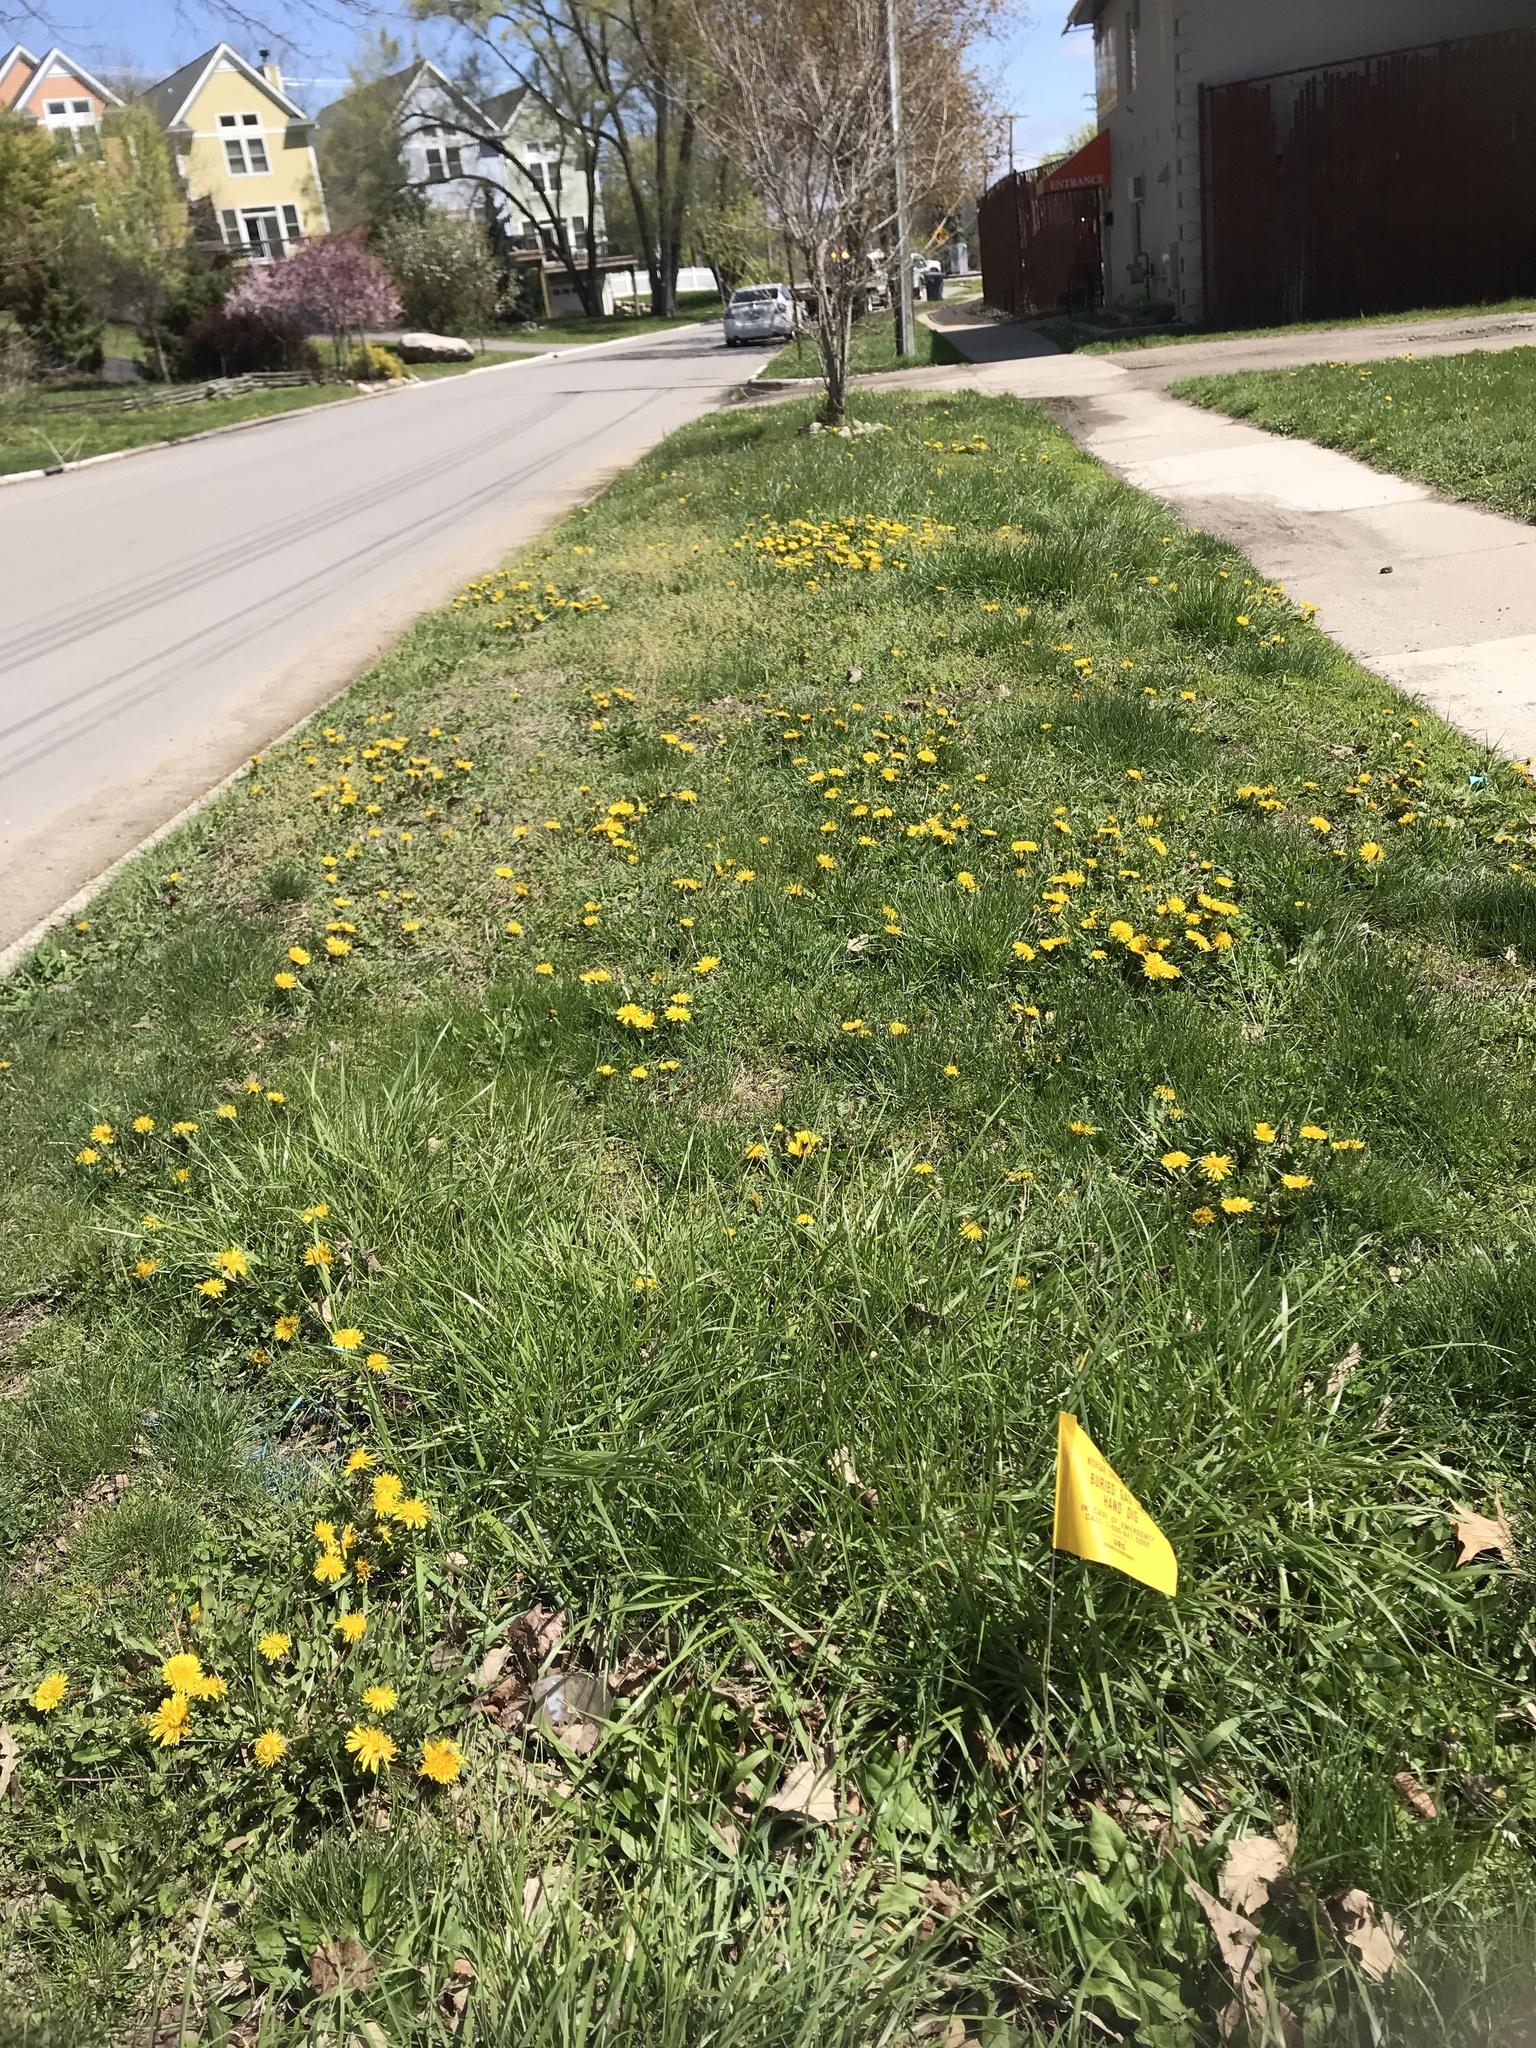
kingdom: Plantae
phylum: Tracheophyta
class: Magnoliopsida
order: Asterales
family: Asteraceae
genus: Taraxacum
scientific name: Taraxacum officinale
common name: Common dandelion
